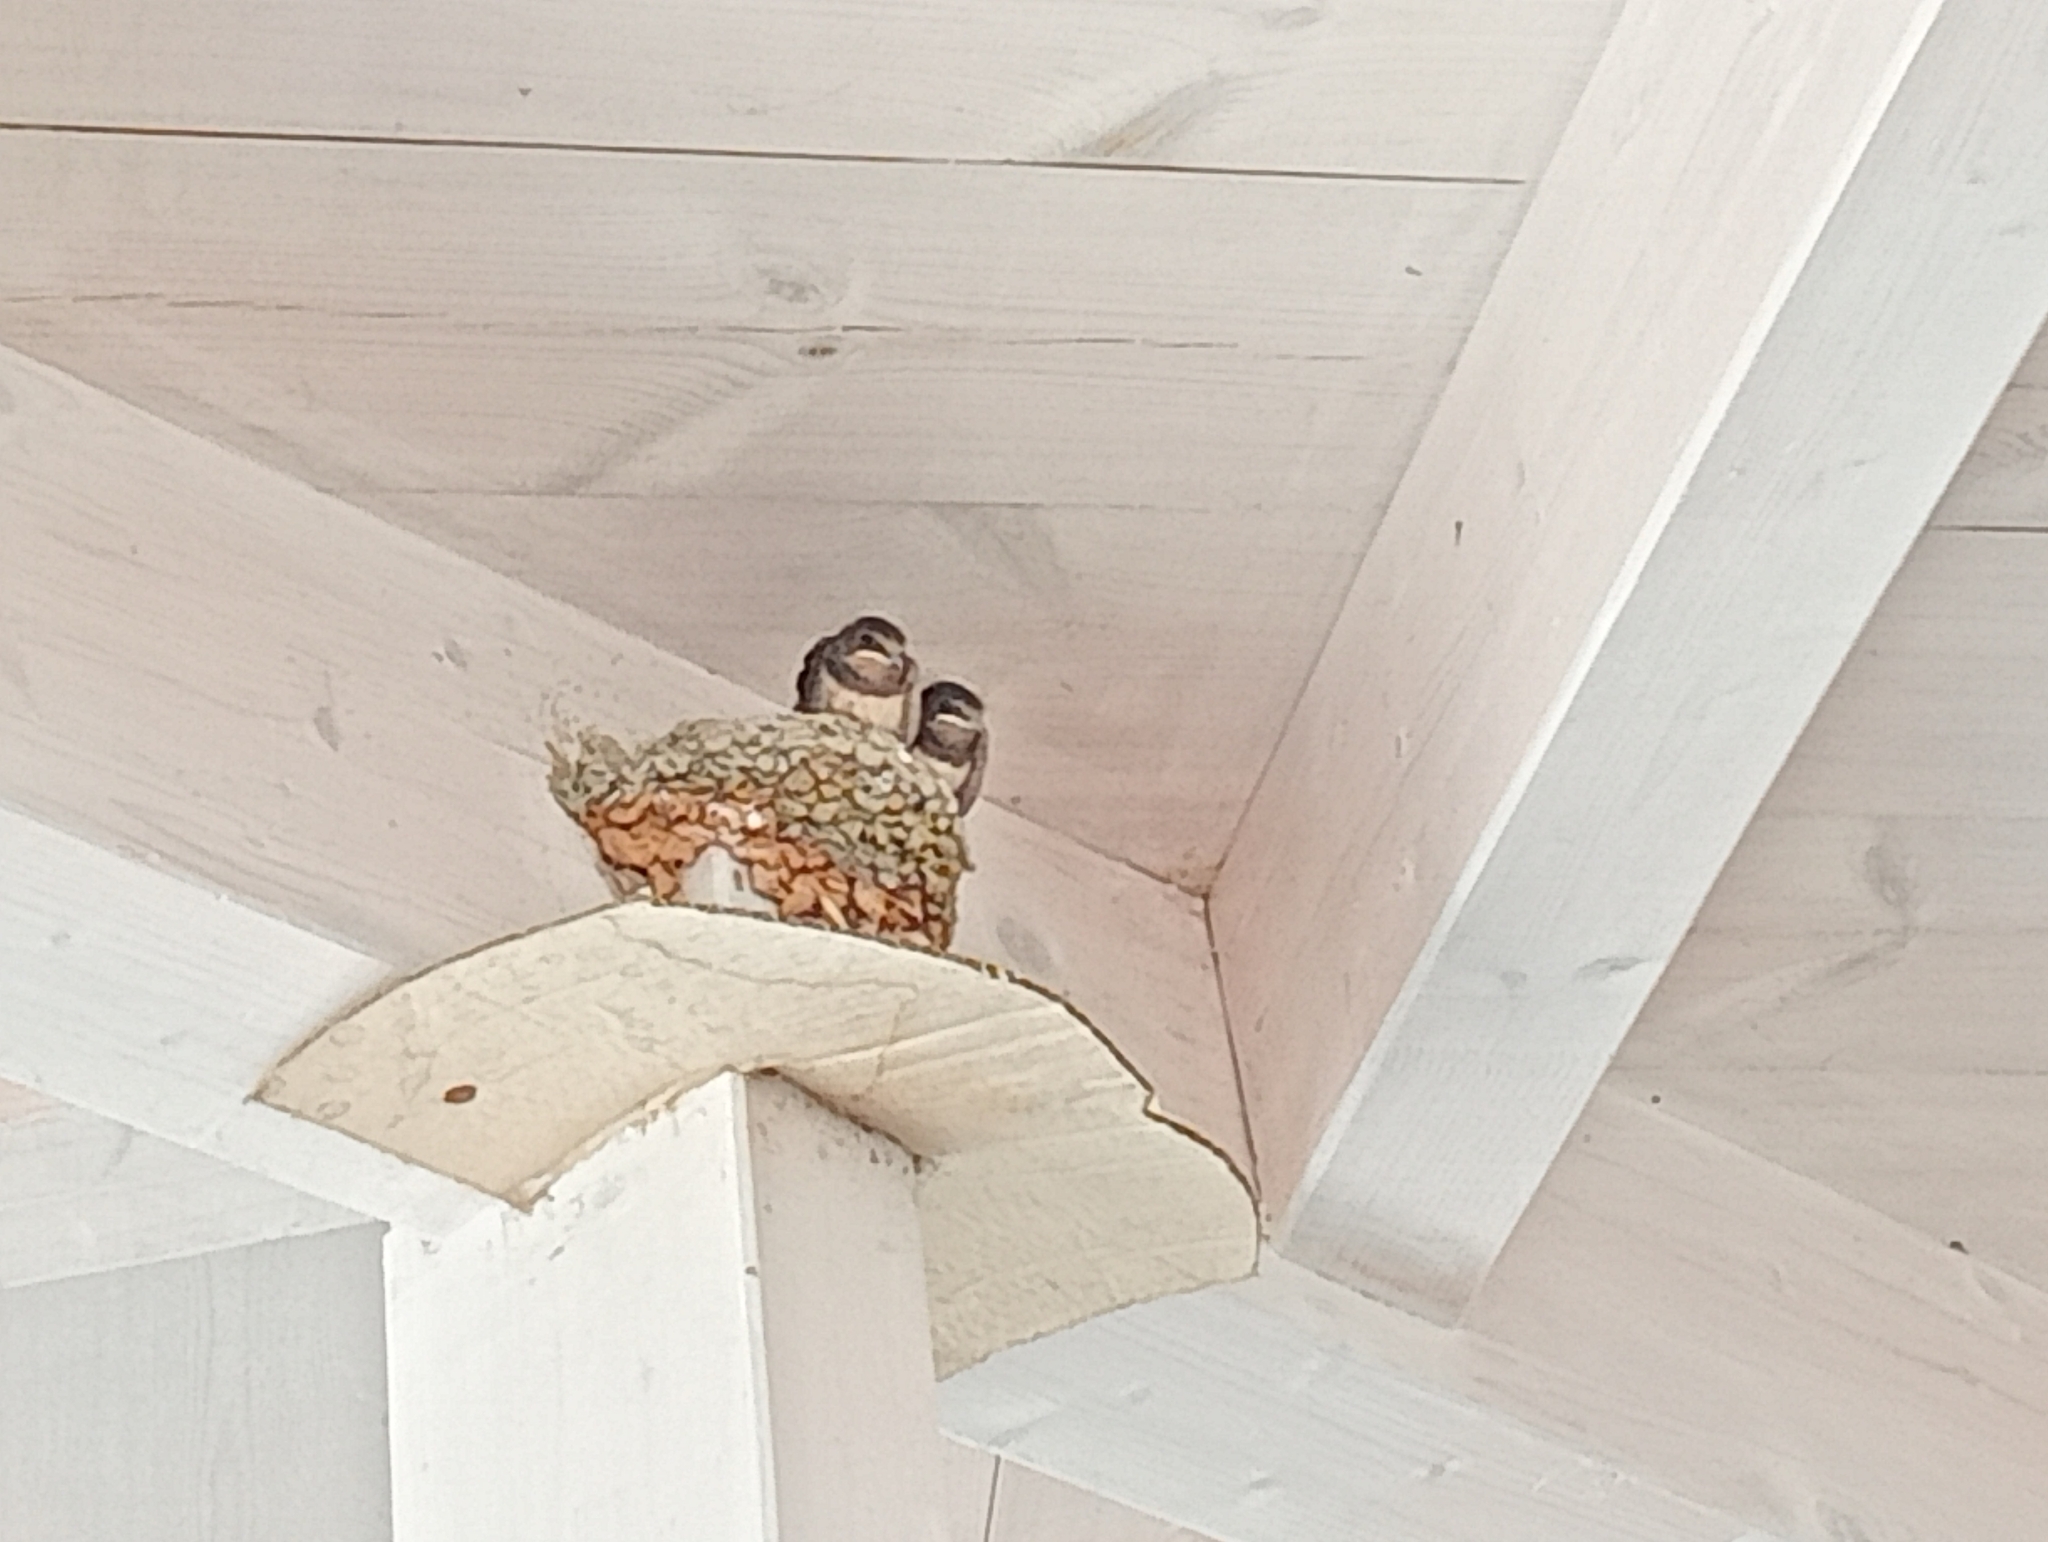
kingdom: Animalia
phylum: Chordata
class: Aves
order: Passeriformes
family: Hirundinidae
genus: Hirundo
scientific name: Hirundo rustica
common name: Barn swallow
